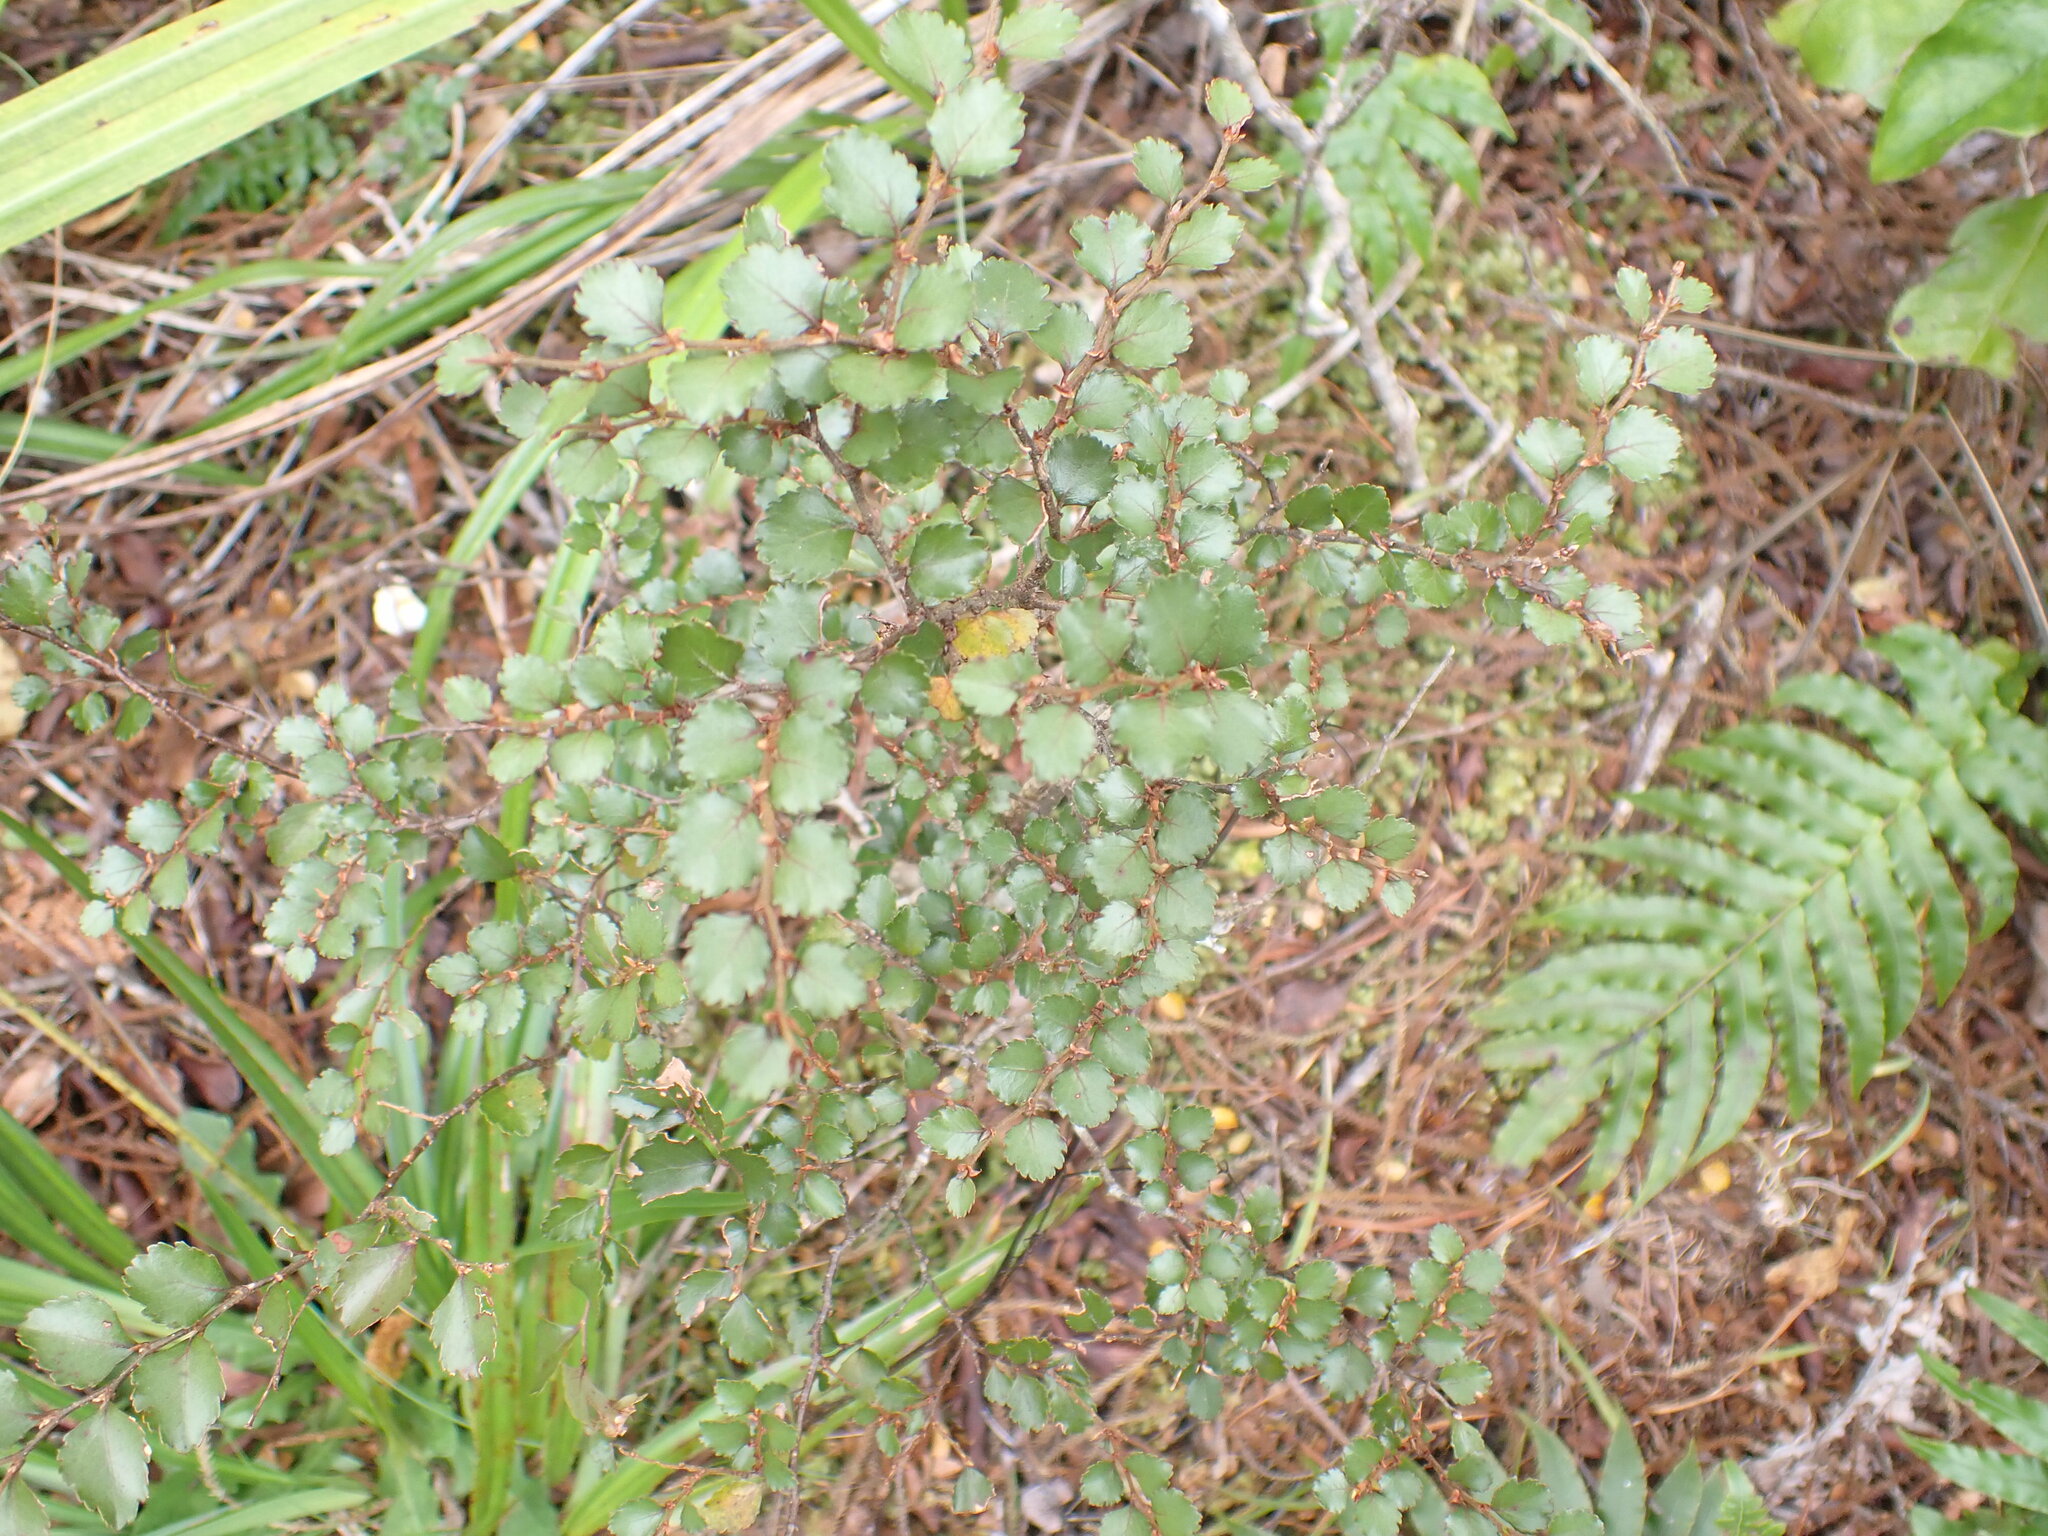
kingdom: Plantae
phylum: Tracheophyta
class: Magnoliopsida
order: Fagales
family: Nothofagaceae
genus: Nothofagus
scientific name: Nothofagus menziesii
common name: Silver beech
